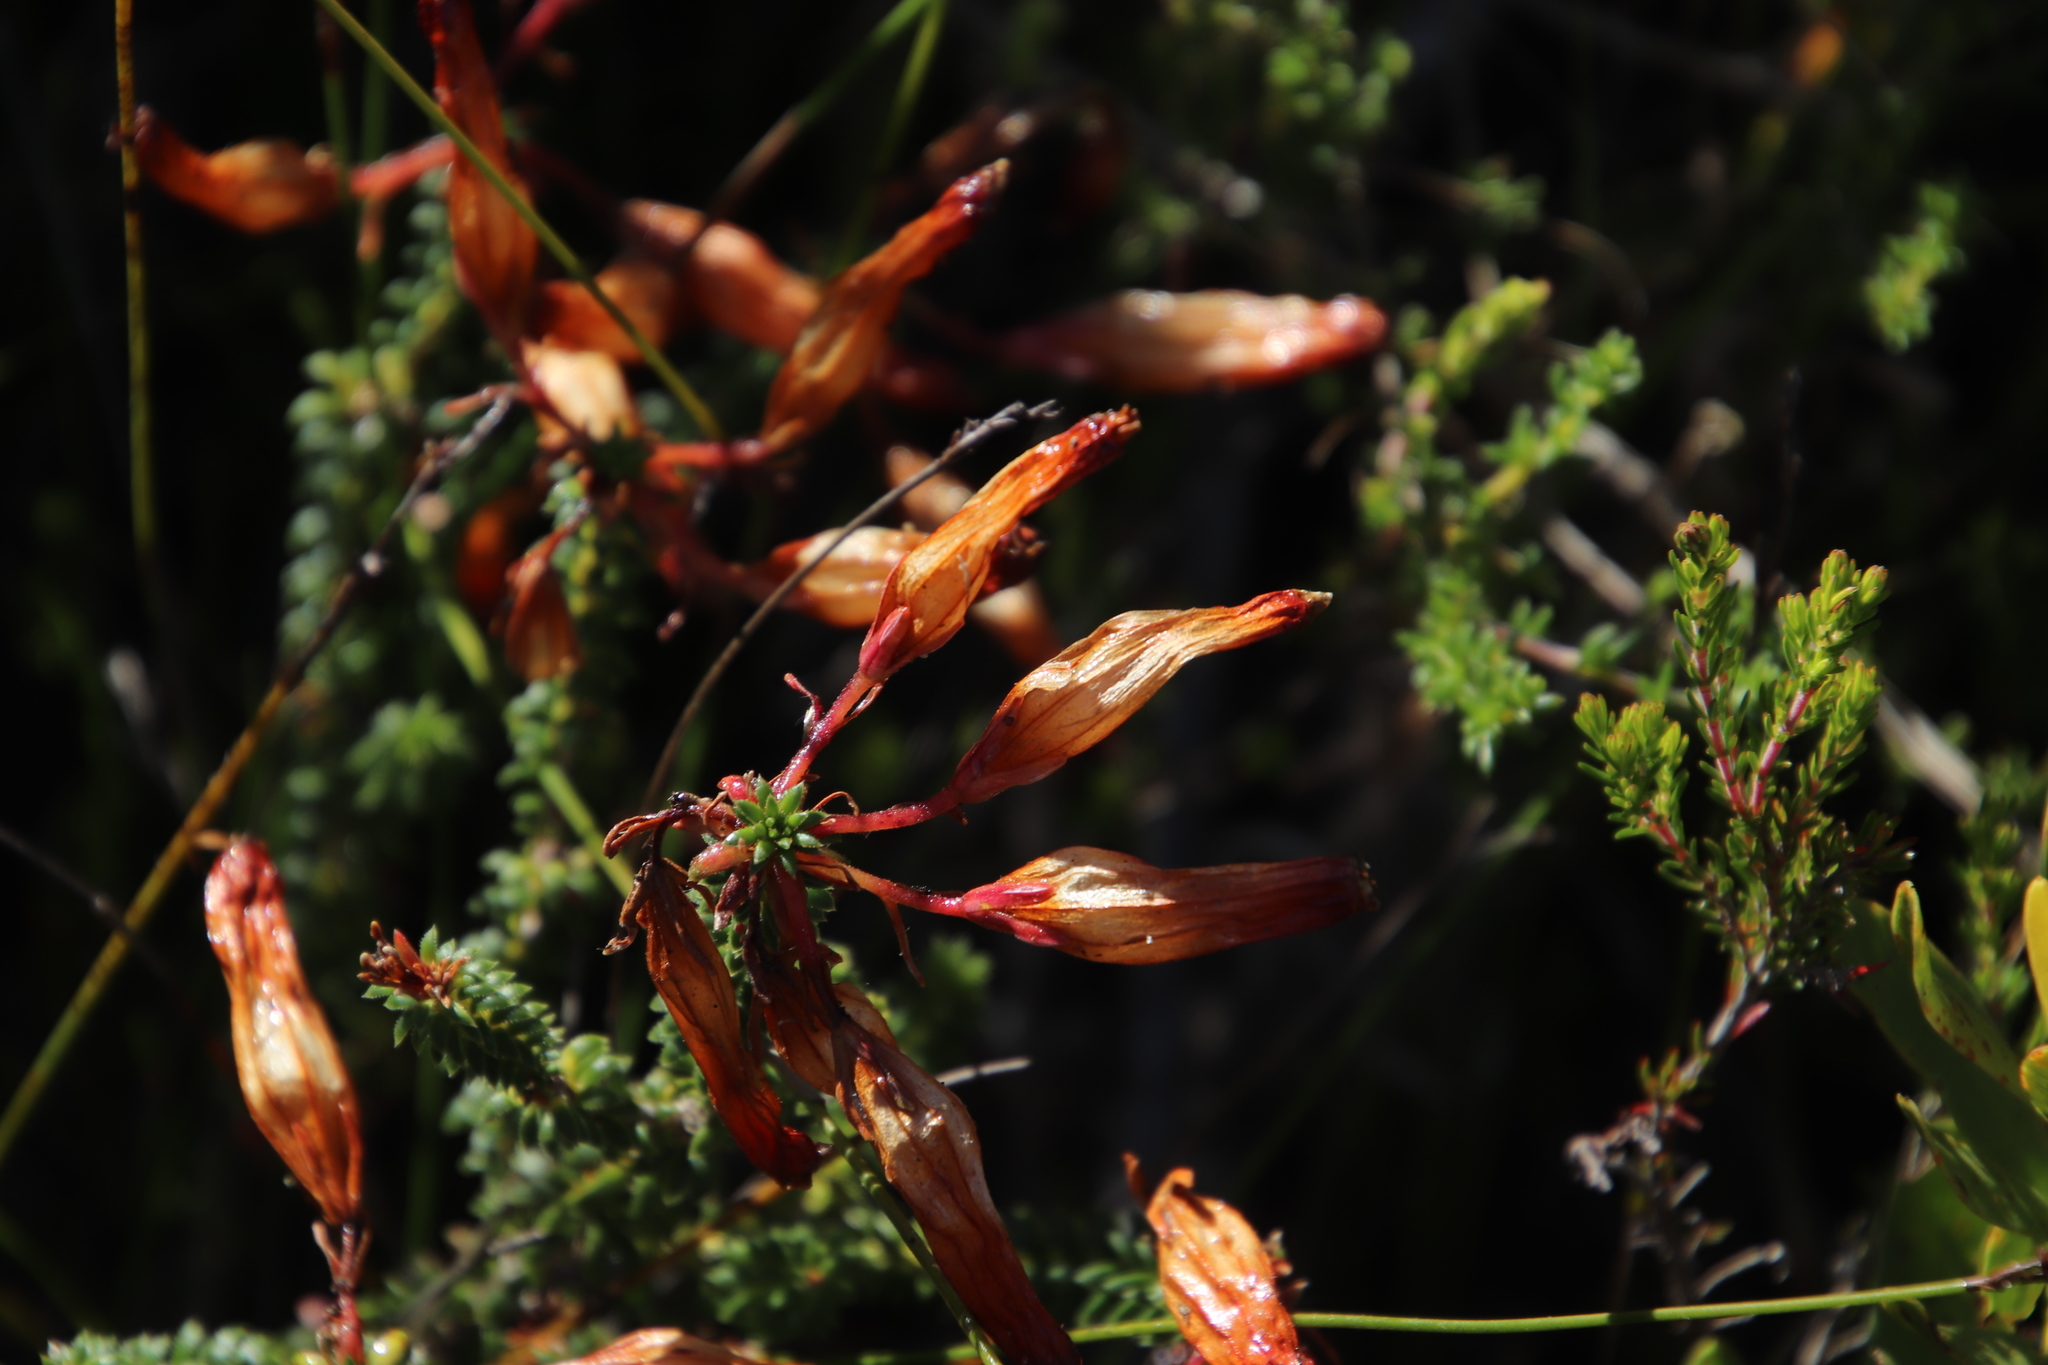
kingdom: Plantae
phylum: Tracheophyta
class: Magnoliopsida
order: Ericales
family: Ericaceae
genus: Erica
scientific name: Erica aristata
